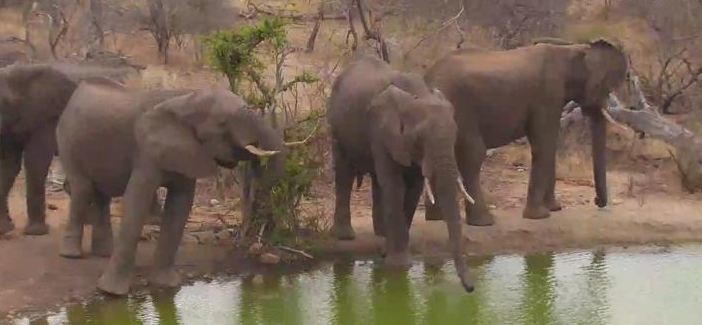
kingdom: Animalia
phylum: Chordata
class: Mammalia
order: Proboscidea
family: Elephantidae
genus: Loxodonta
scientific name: Loxodonta africana
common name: African elephant
